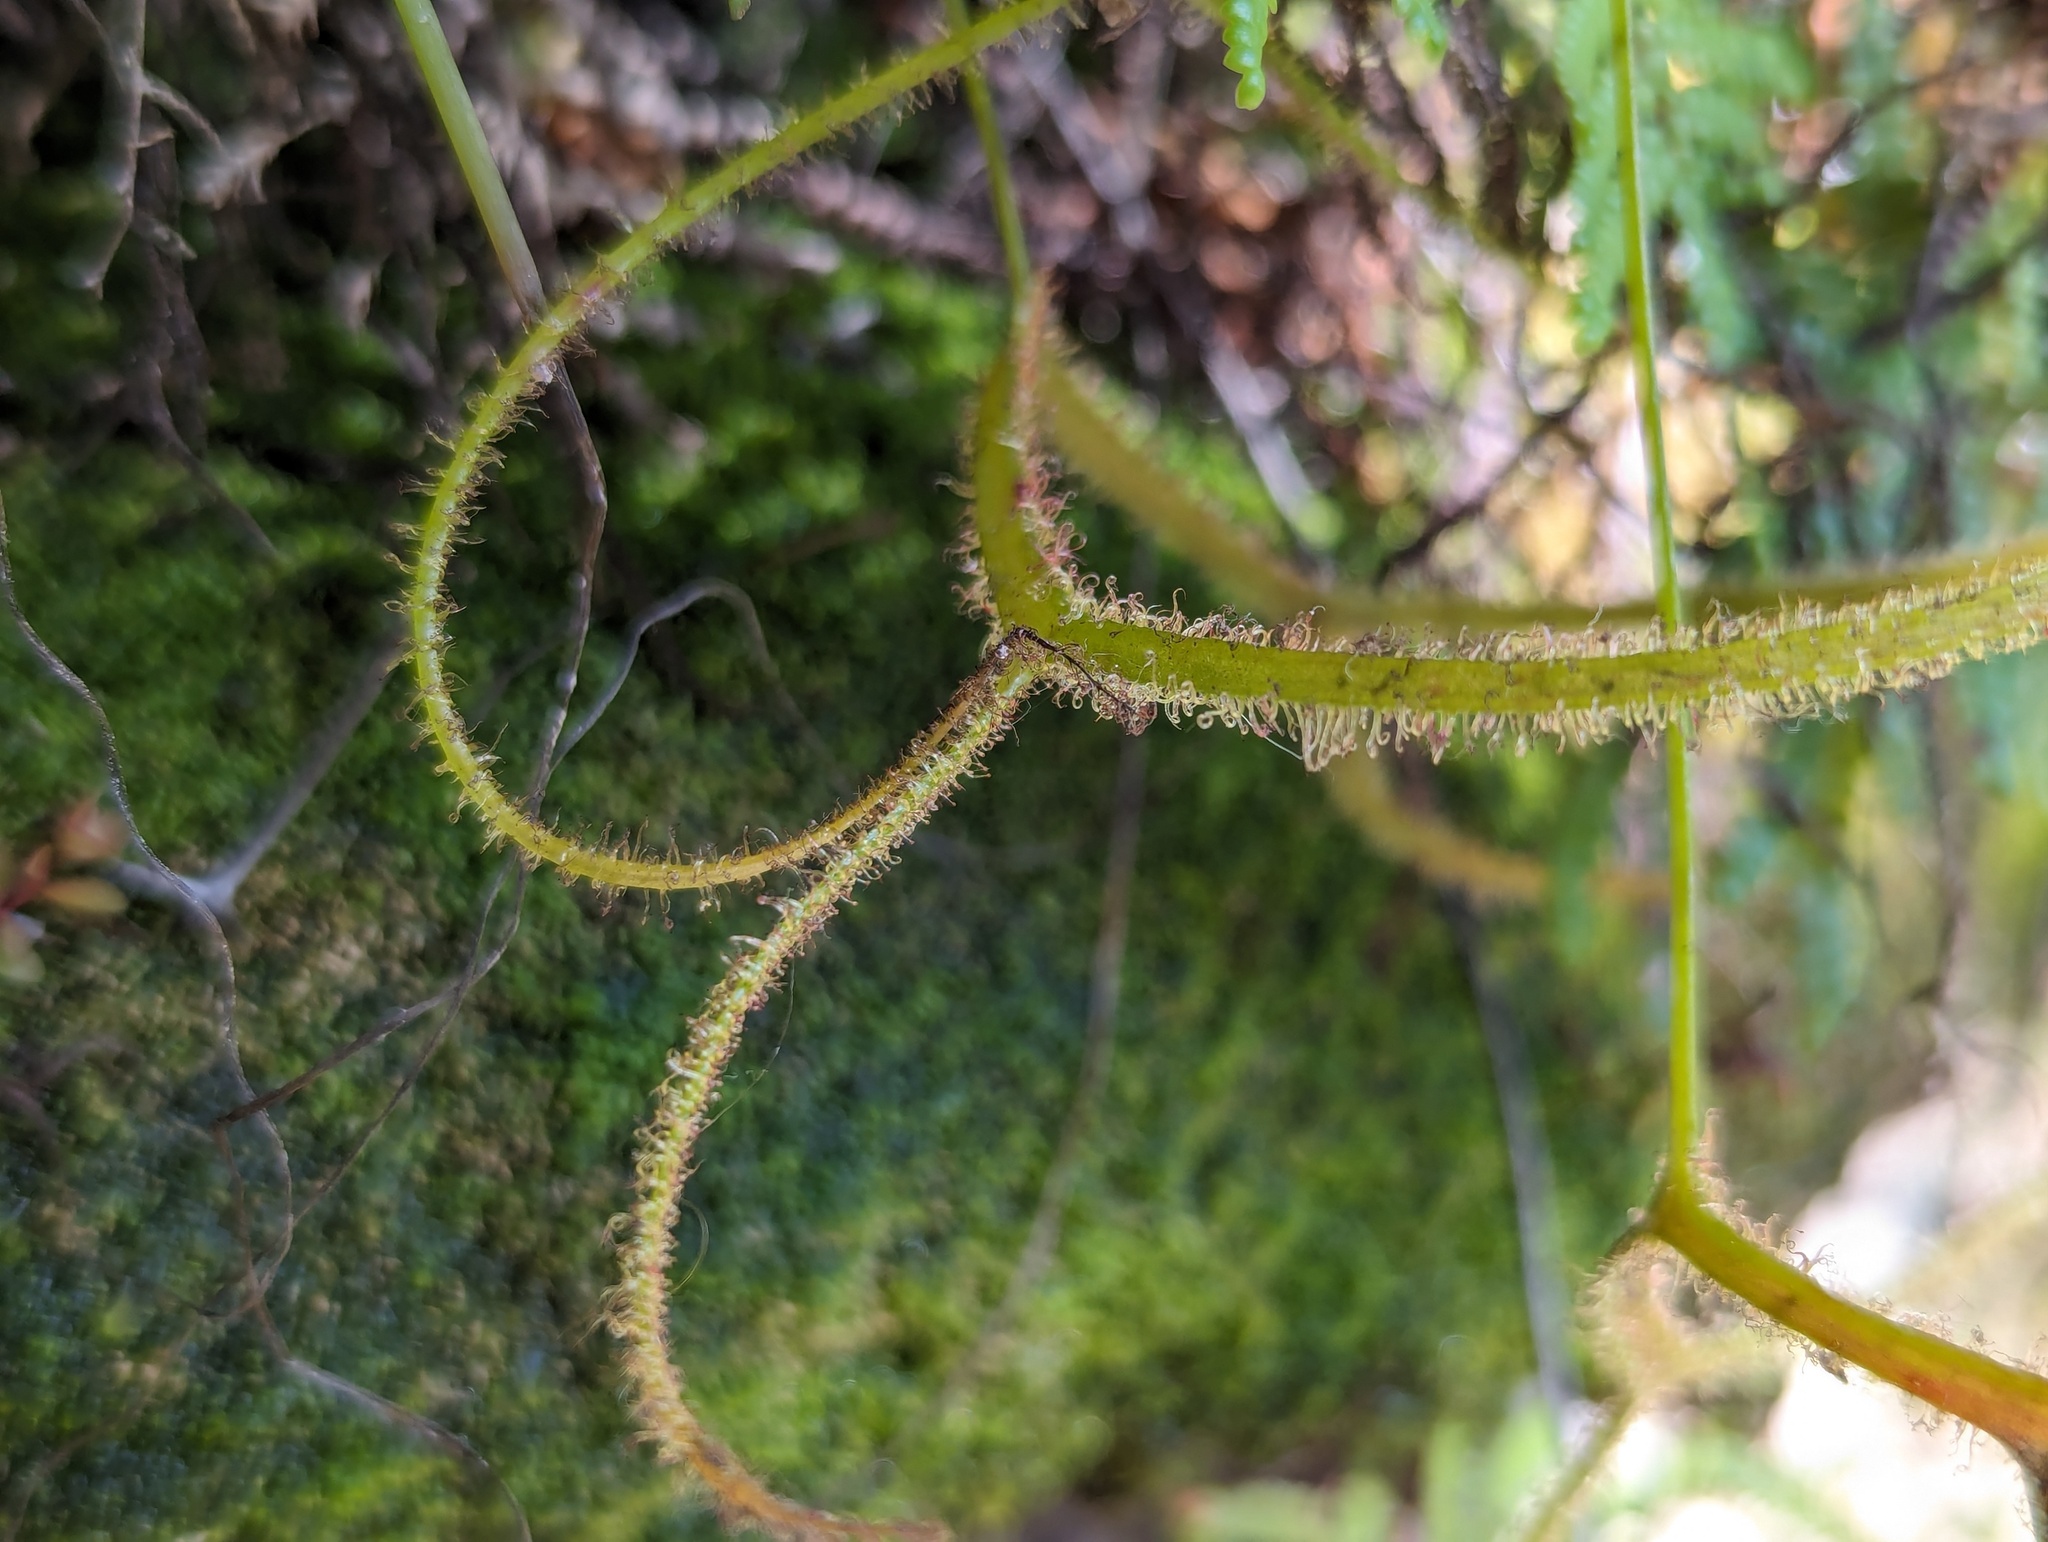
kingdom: Plantae
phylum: Tracheophyta
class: Magnoliopsida
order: Caryophyllales
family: Droseraceae
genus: Drosera
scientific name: Drosera binata
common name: Forked sundew
